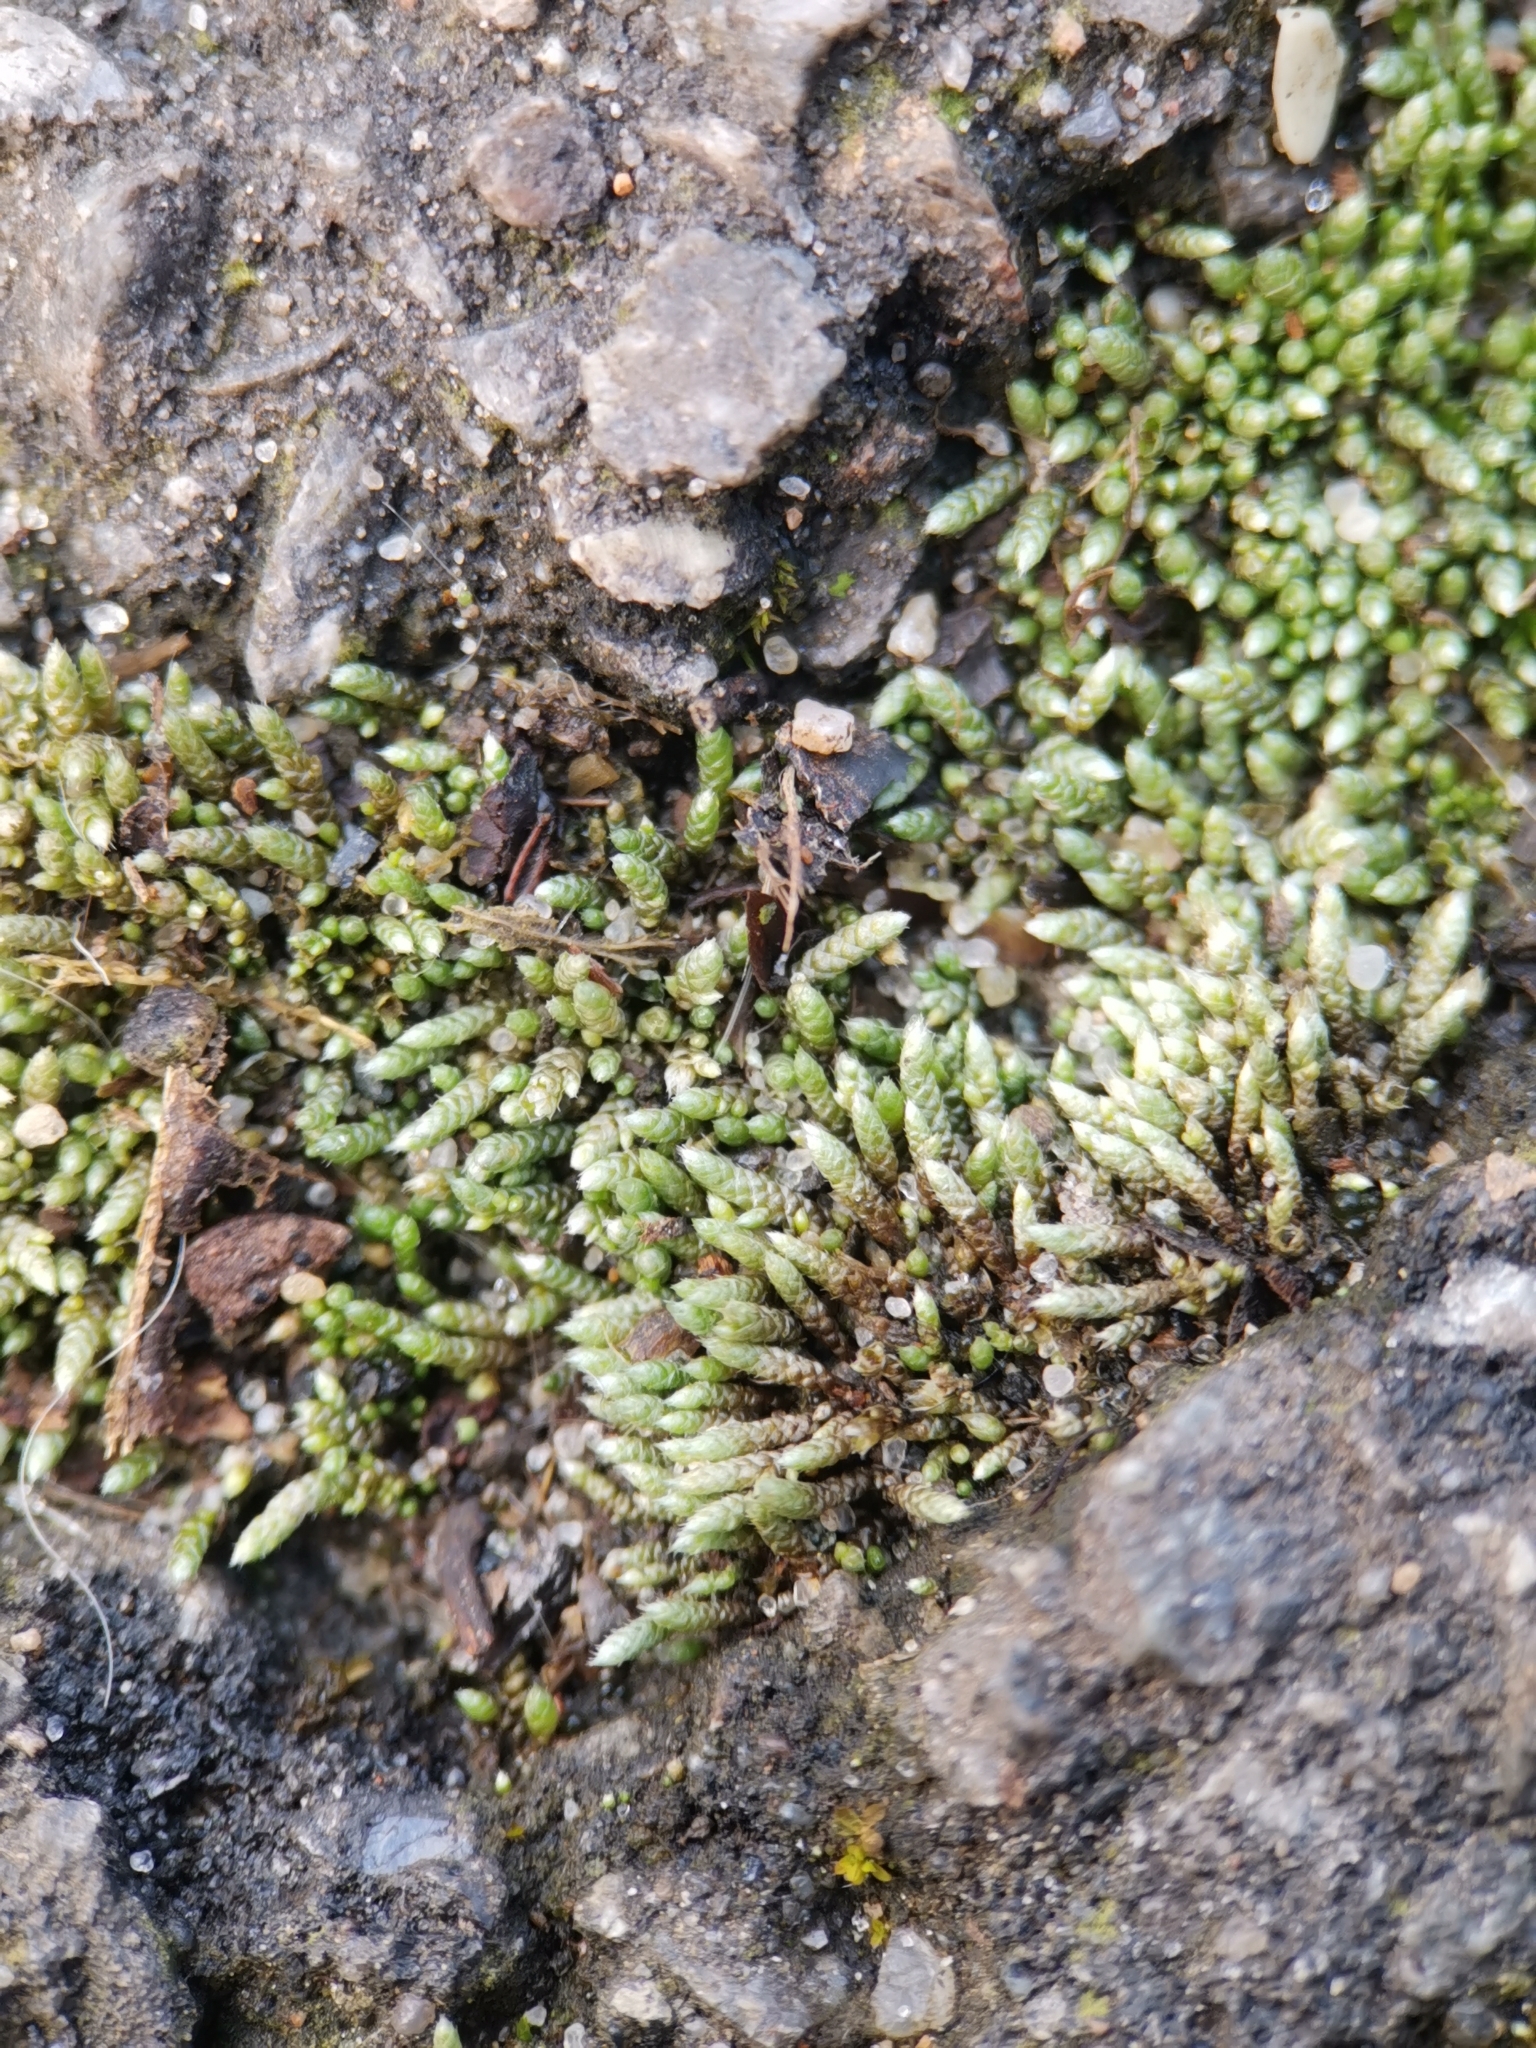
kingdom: Plantae
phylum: Bryophyta
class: Bryopsida
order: Bryales
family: Bryaceae
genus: Bryum
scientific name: Bryum argenteum
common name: Silver-moss
